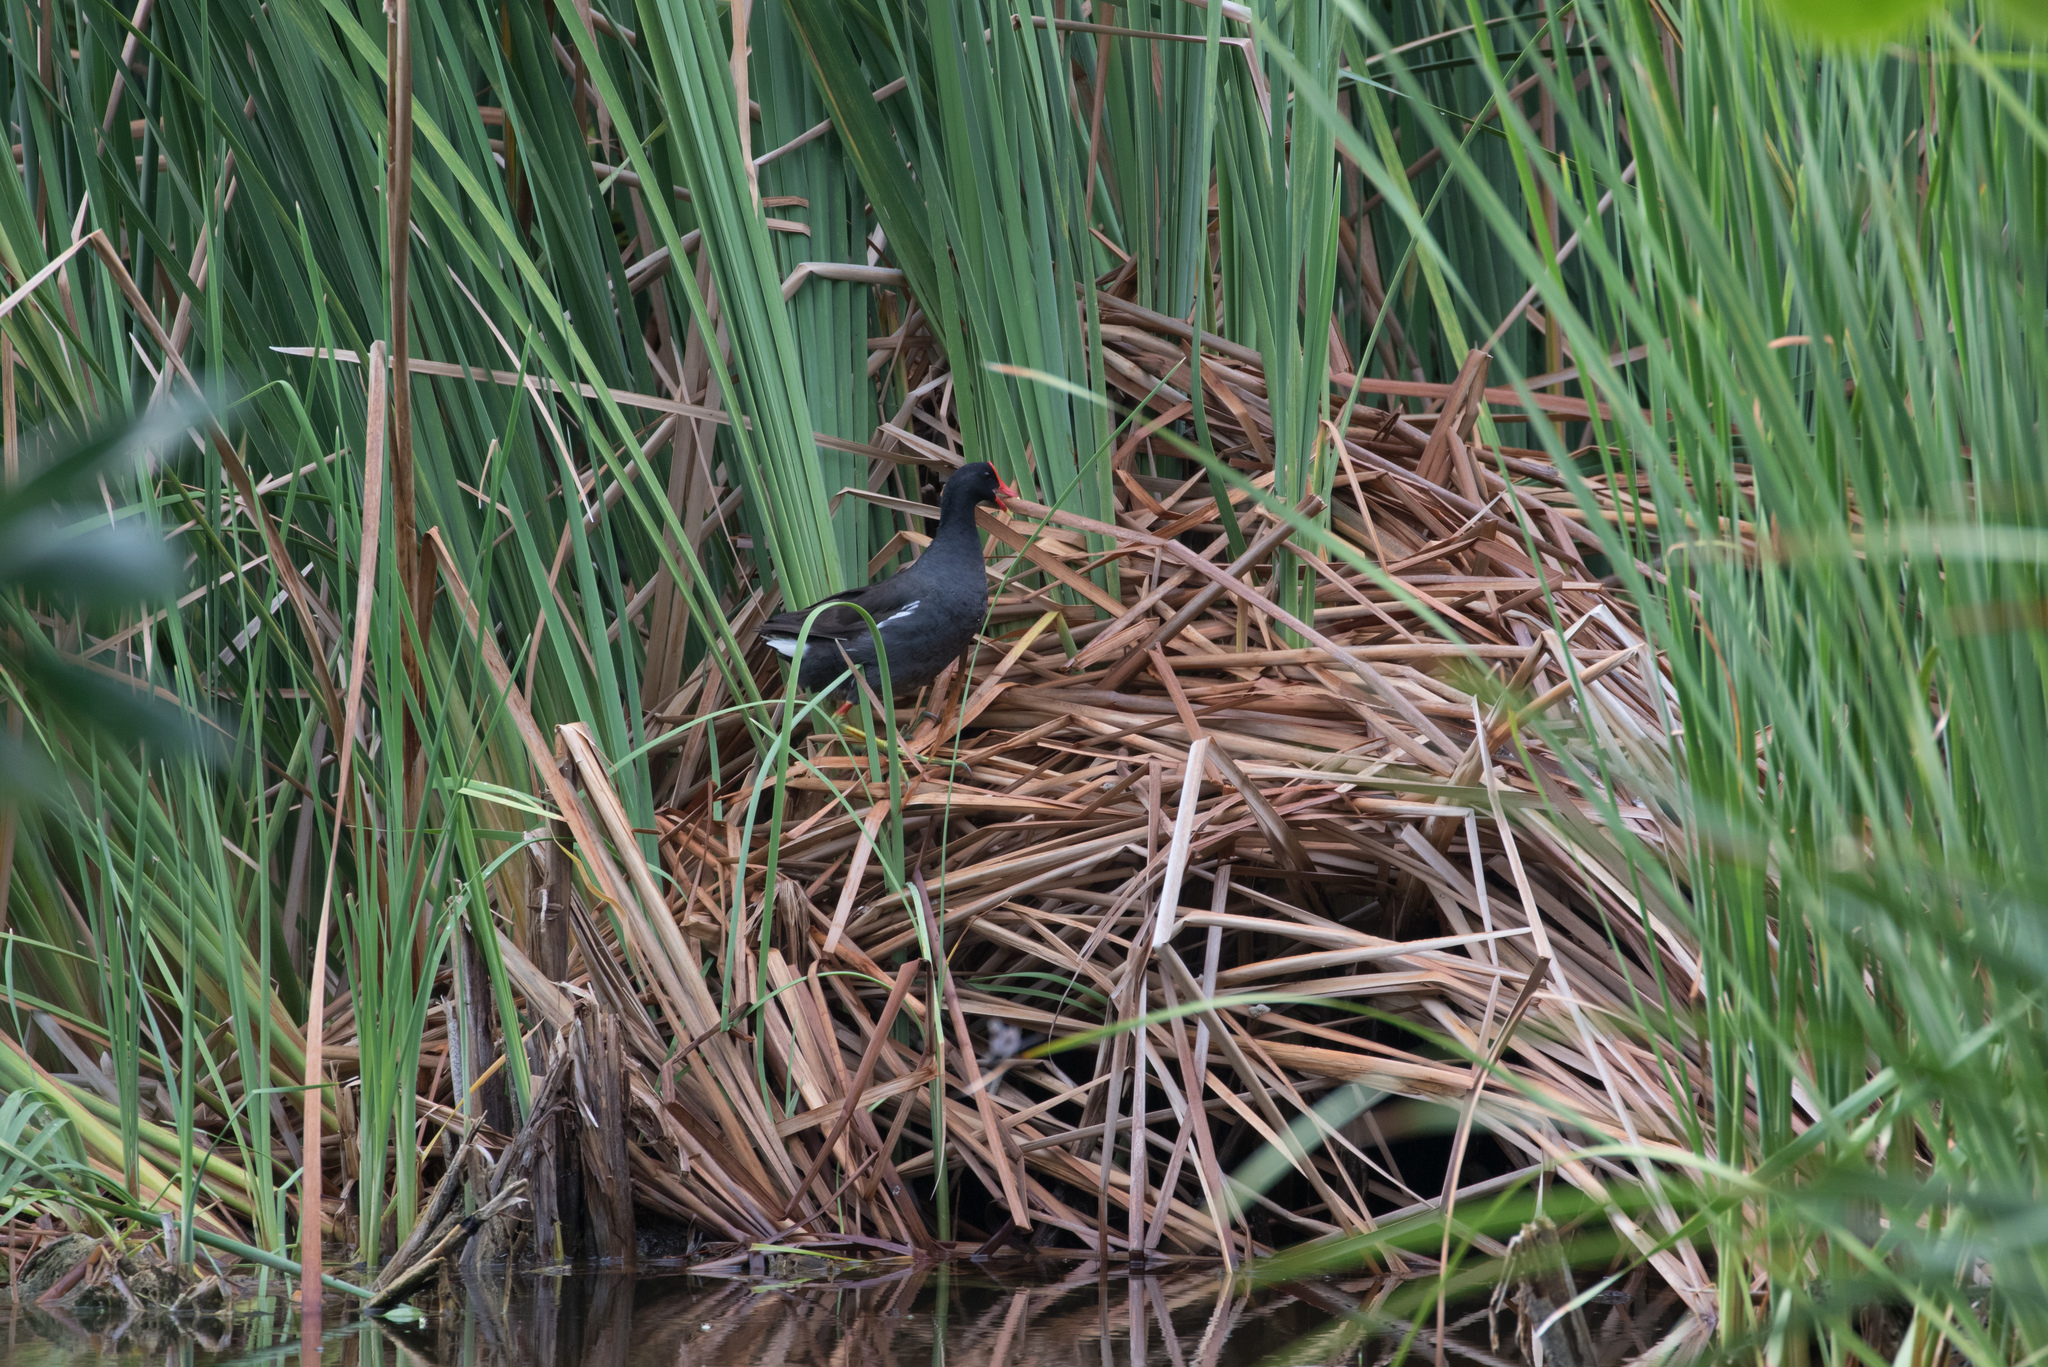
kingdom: Animalia
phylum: Chordata
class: Aves
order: Gruiformes
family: Rallidae
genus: Gallinula
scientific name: Gallinula chloropus
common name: Common moorhen
